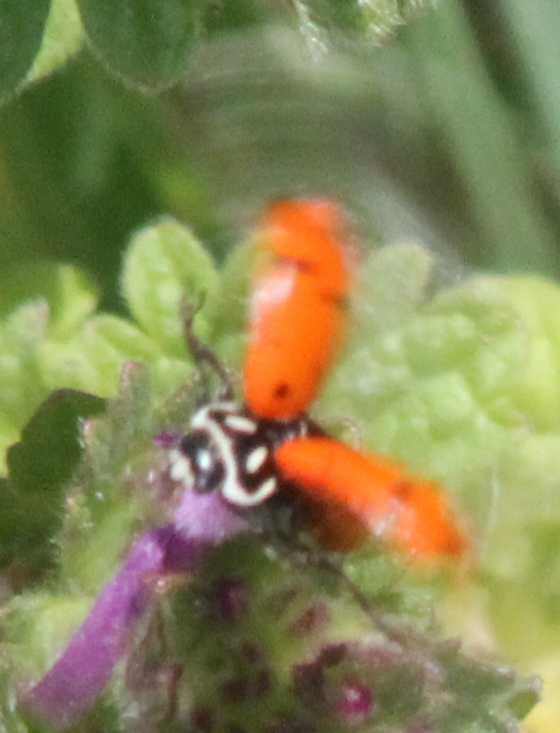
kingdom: Animalia
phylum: Arthropoda
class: Insecta
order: Coleoptera
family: Coccinellidae
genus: Hippodamia
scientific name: Hippodamia convergens
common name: Convergent lady beetle
